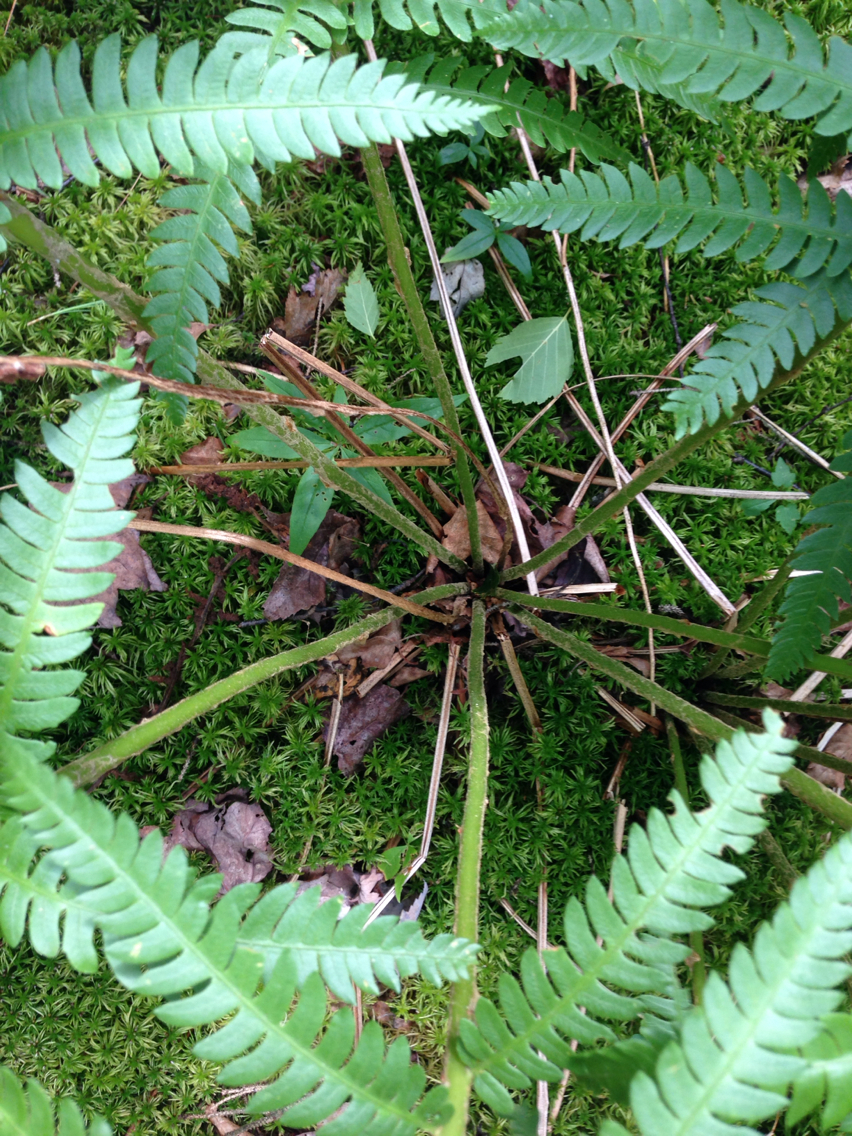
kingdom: Plantae
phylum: Tracheophyta
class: Polypodiopsida
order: Osmundales
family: Osmundaceae
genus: Osmundastrum
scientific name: Osmundastrum cinnamomeum
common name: Cinnamon fern
